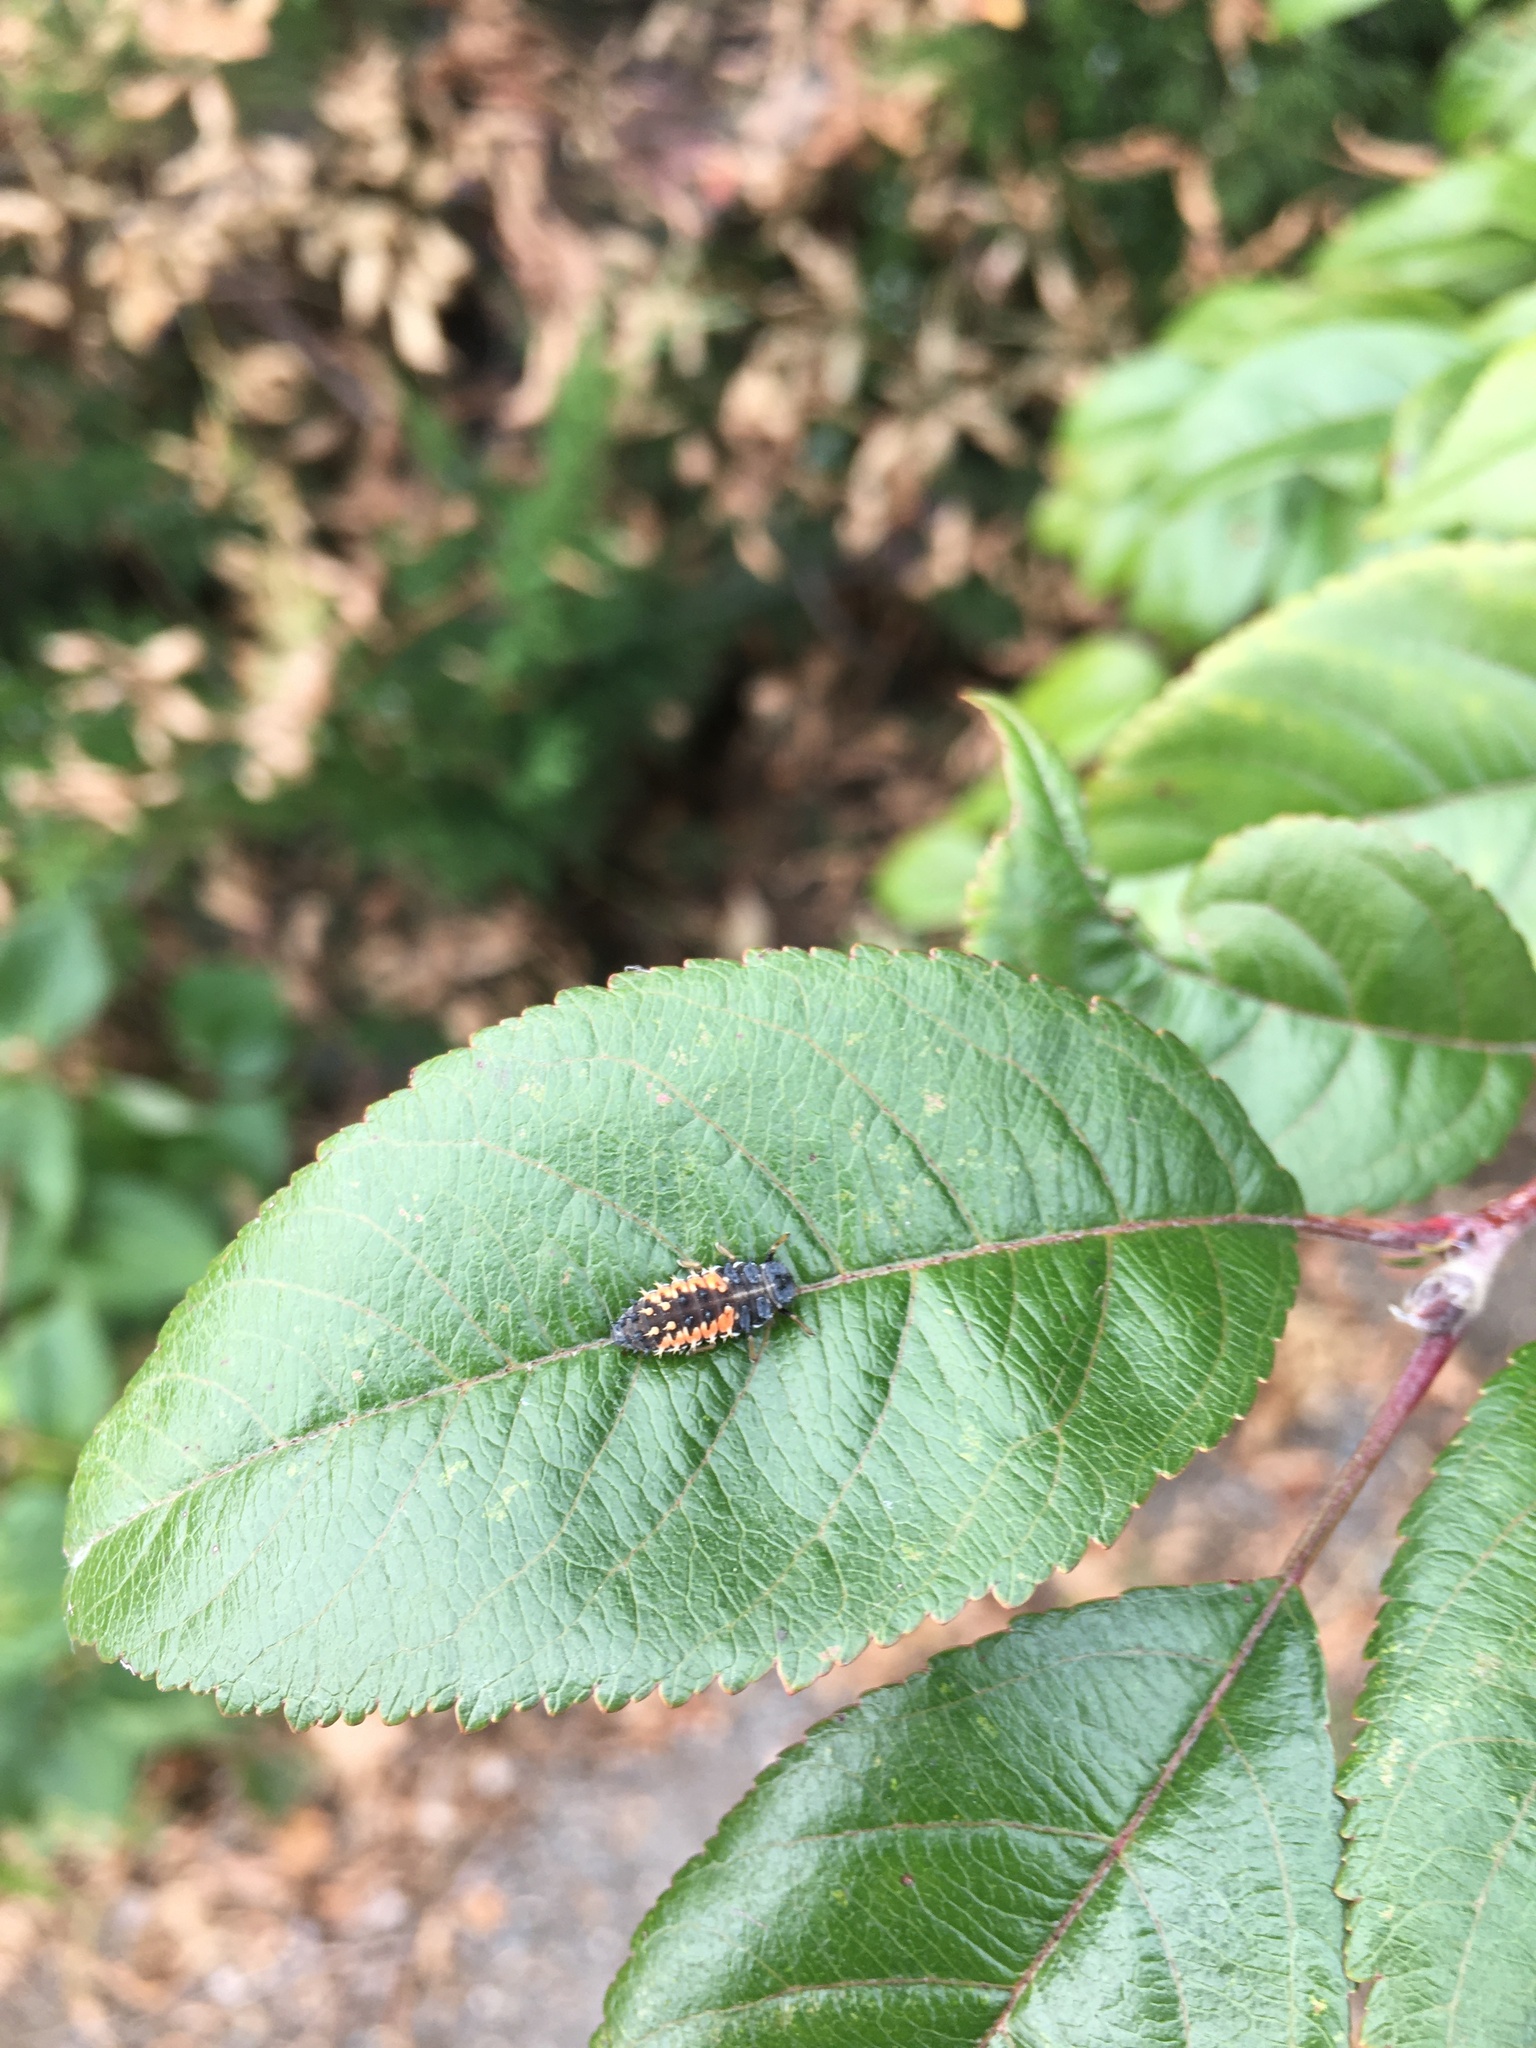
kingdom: Animalia
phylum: Arthropoda
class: Insecta
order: Coleoptera
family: Coccinellidae
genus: Harmonia
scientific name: Harmonia axyridis
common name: Harlequin ladybird
